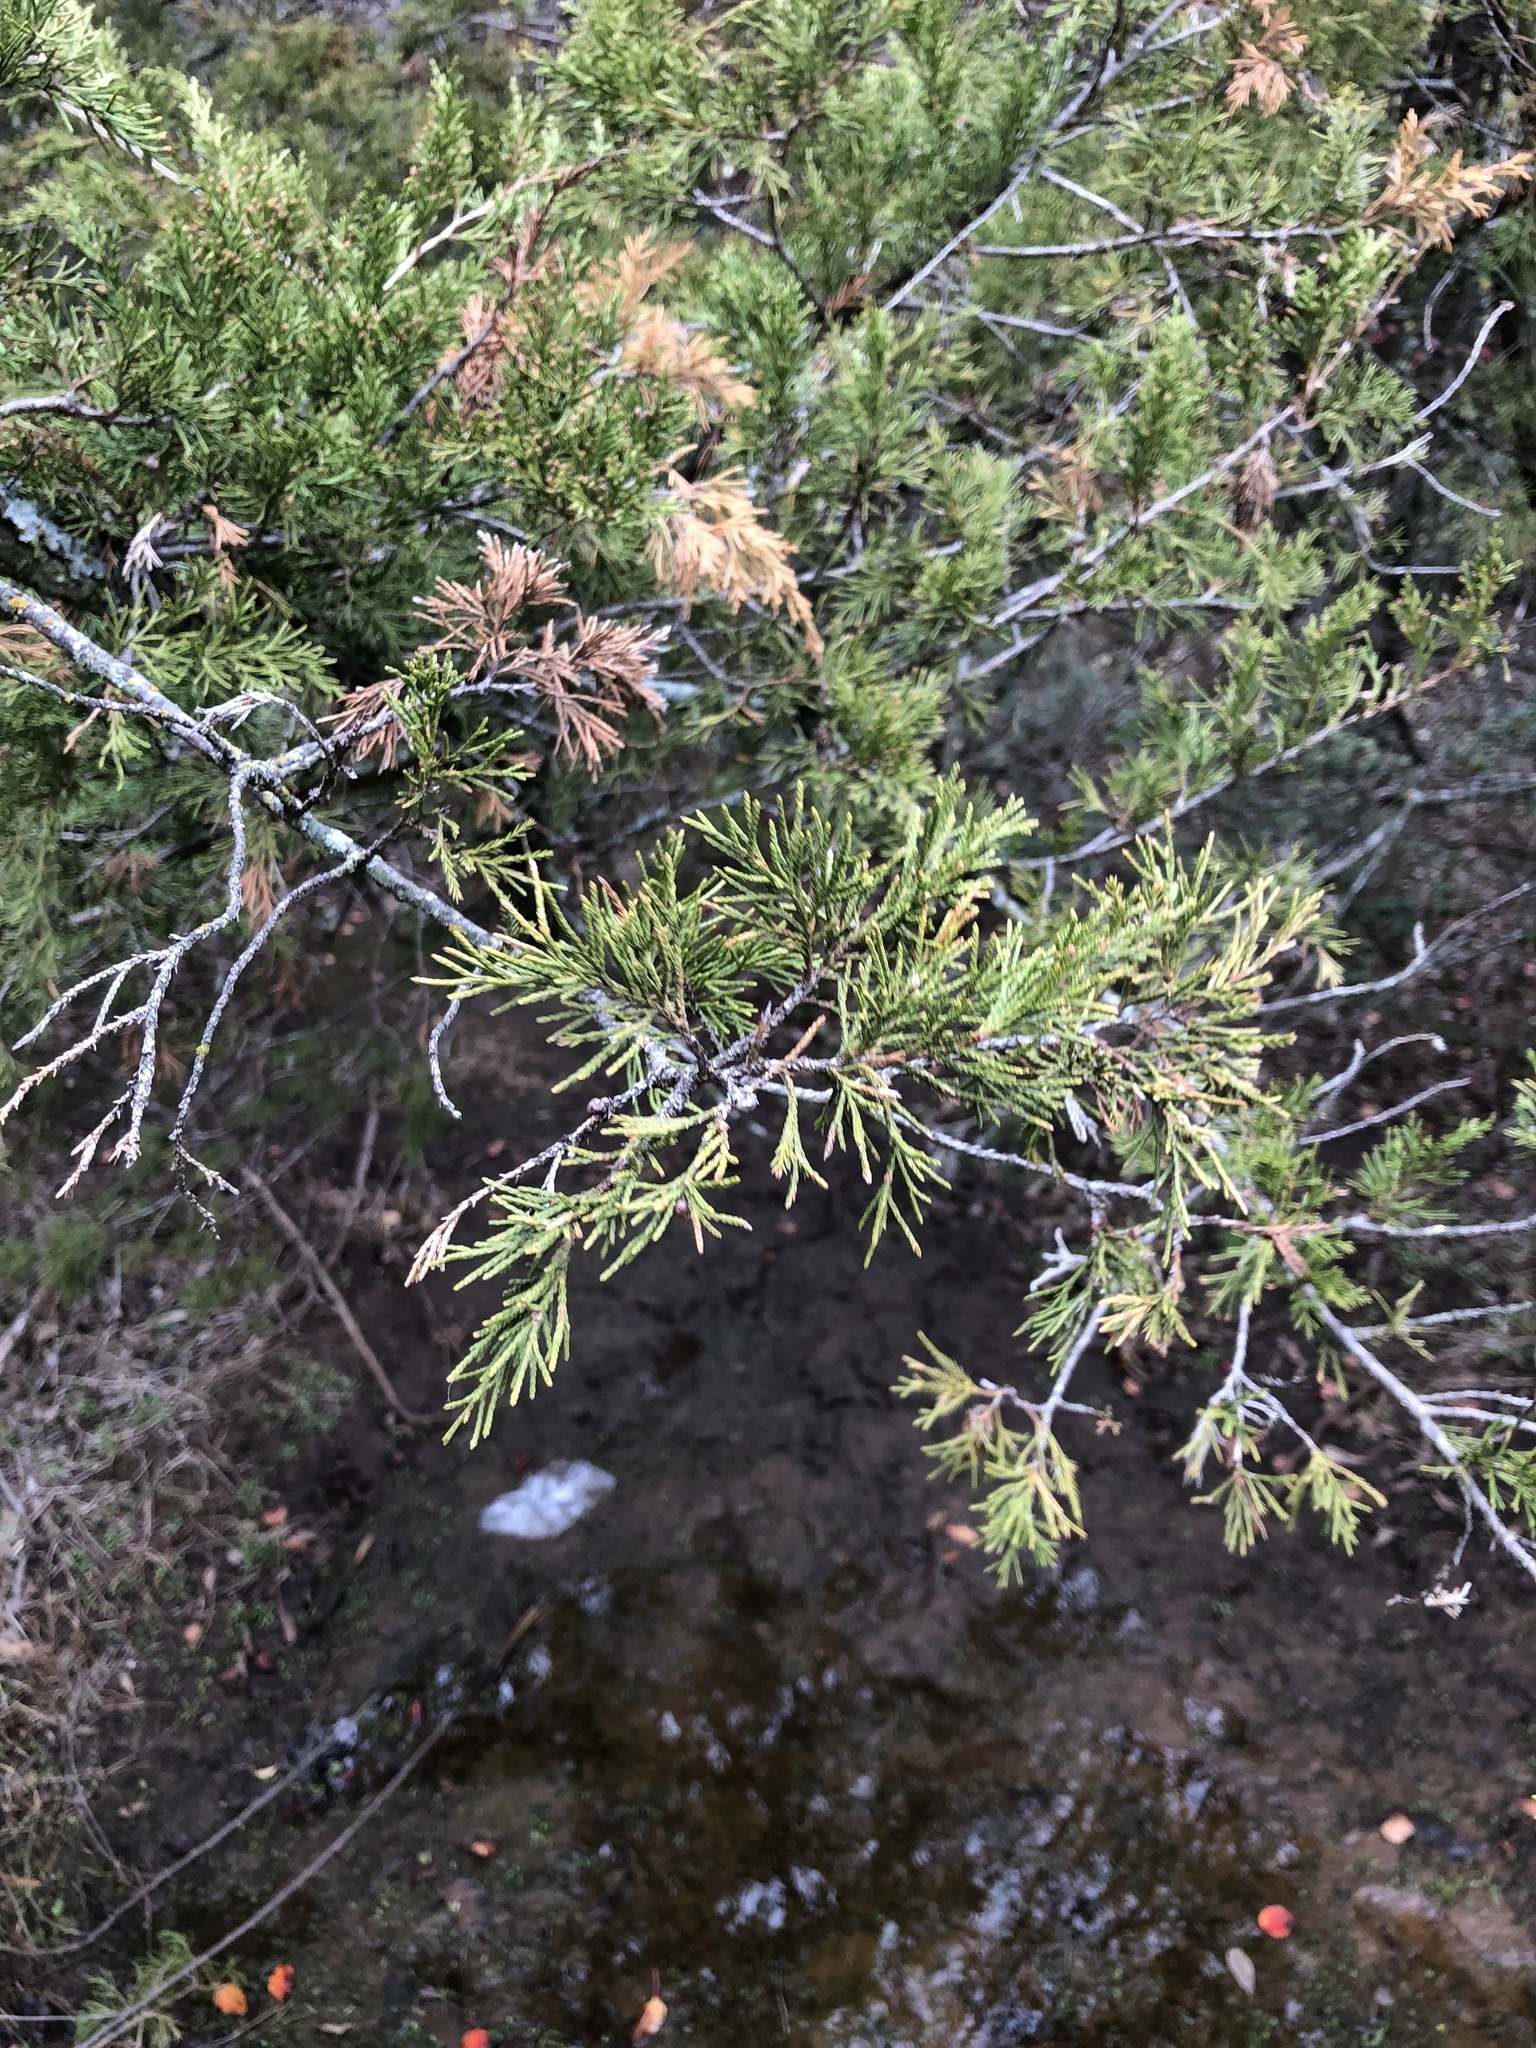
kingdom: Plantae
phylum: Tracheophyta
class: Pinopsida
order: Pinales
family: Cupressaceae
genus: Juniperus
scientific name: Juniperus virginiana
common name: Red juniper
